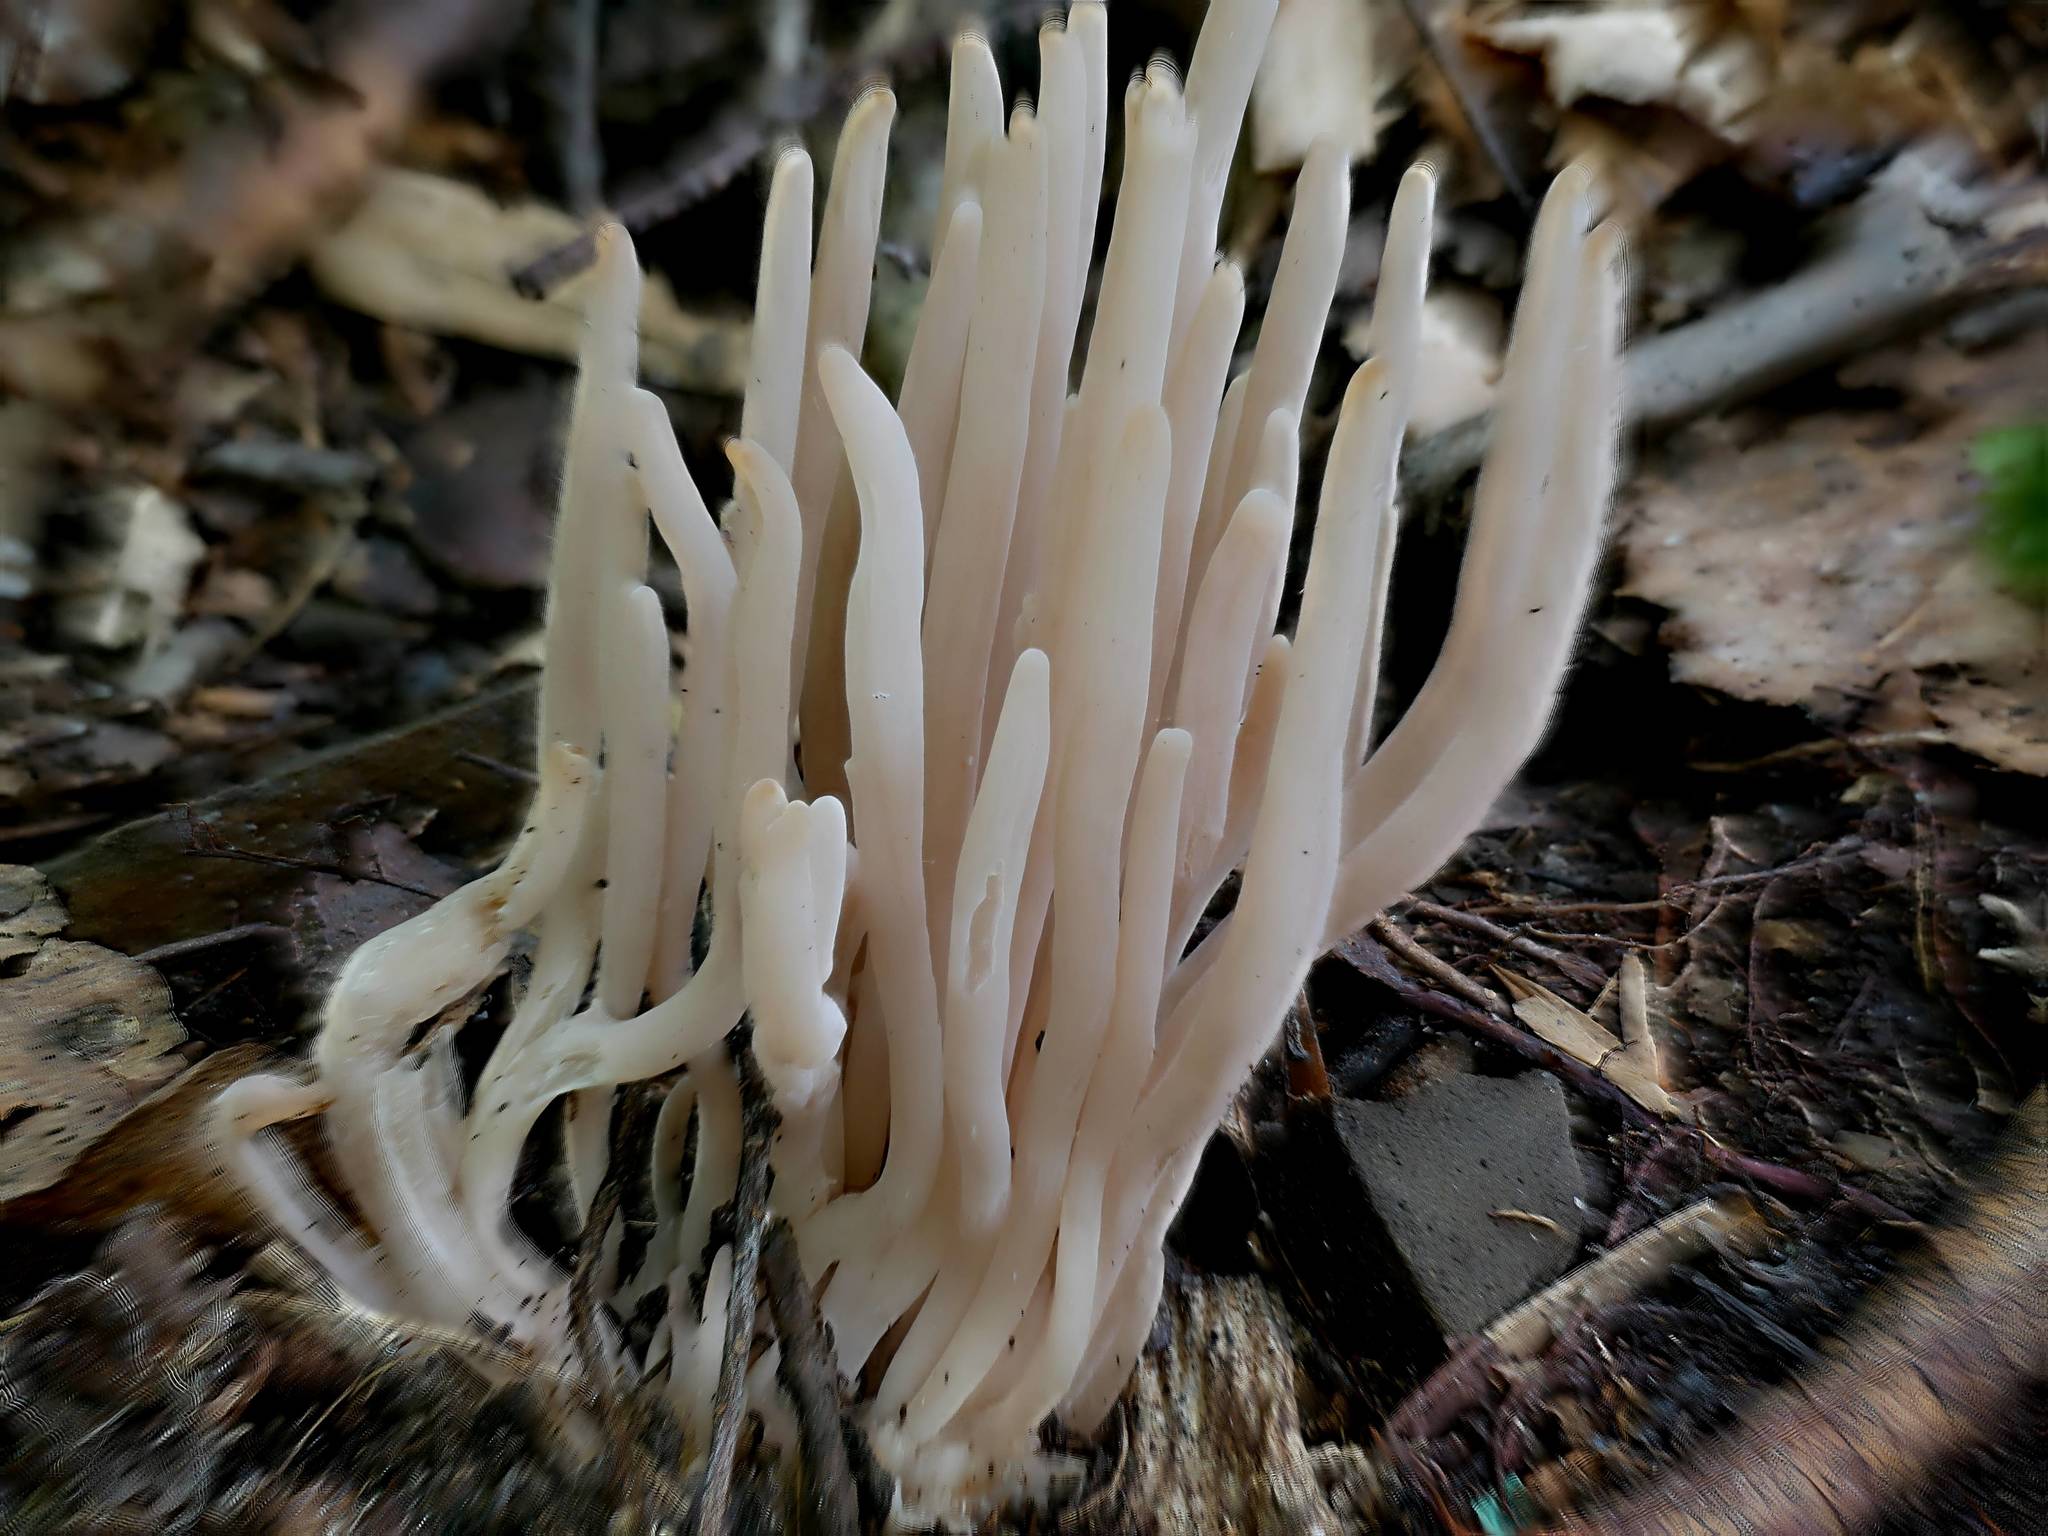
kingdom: Fungi
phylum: Basidiomycota
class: Agaricomycetes
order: Agaricales
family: Clavariaceae
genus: Clavaria
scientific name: Clavaria fumosa
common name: Smoky spindles
